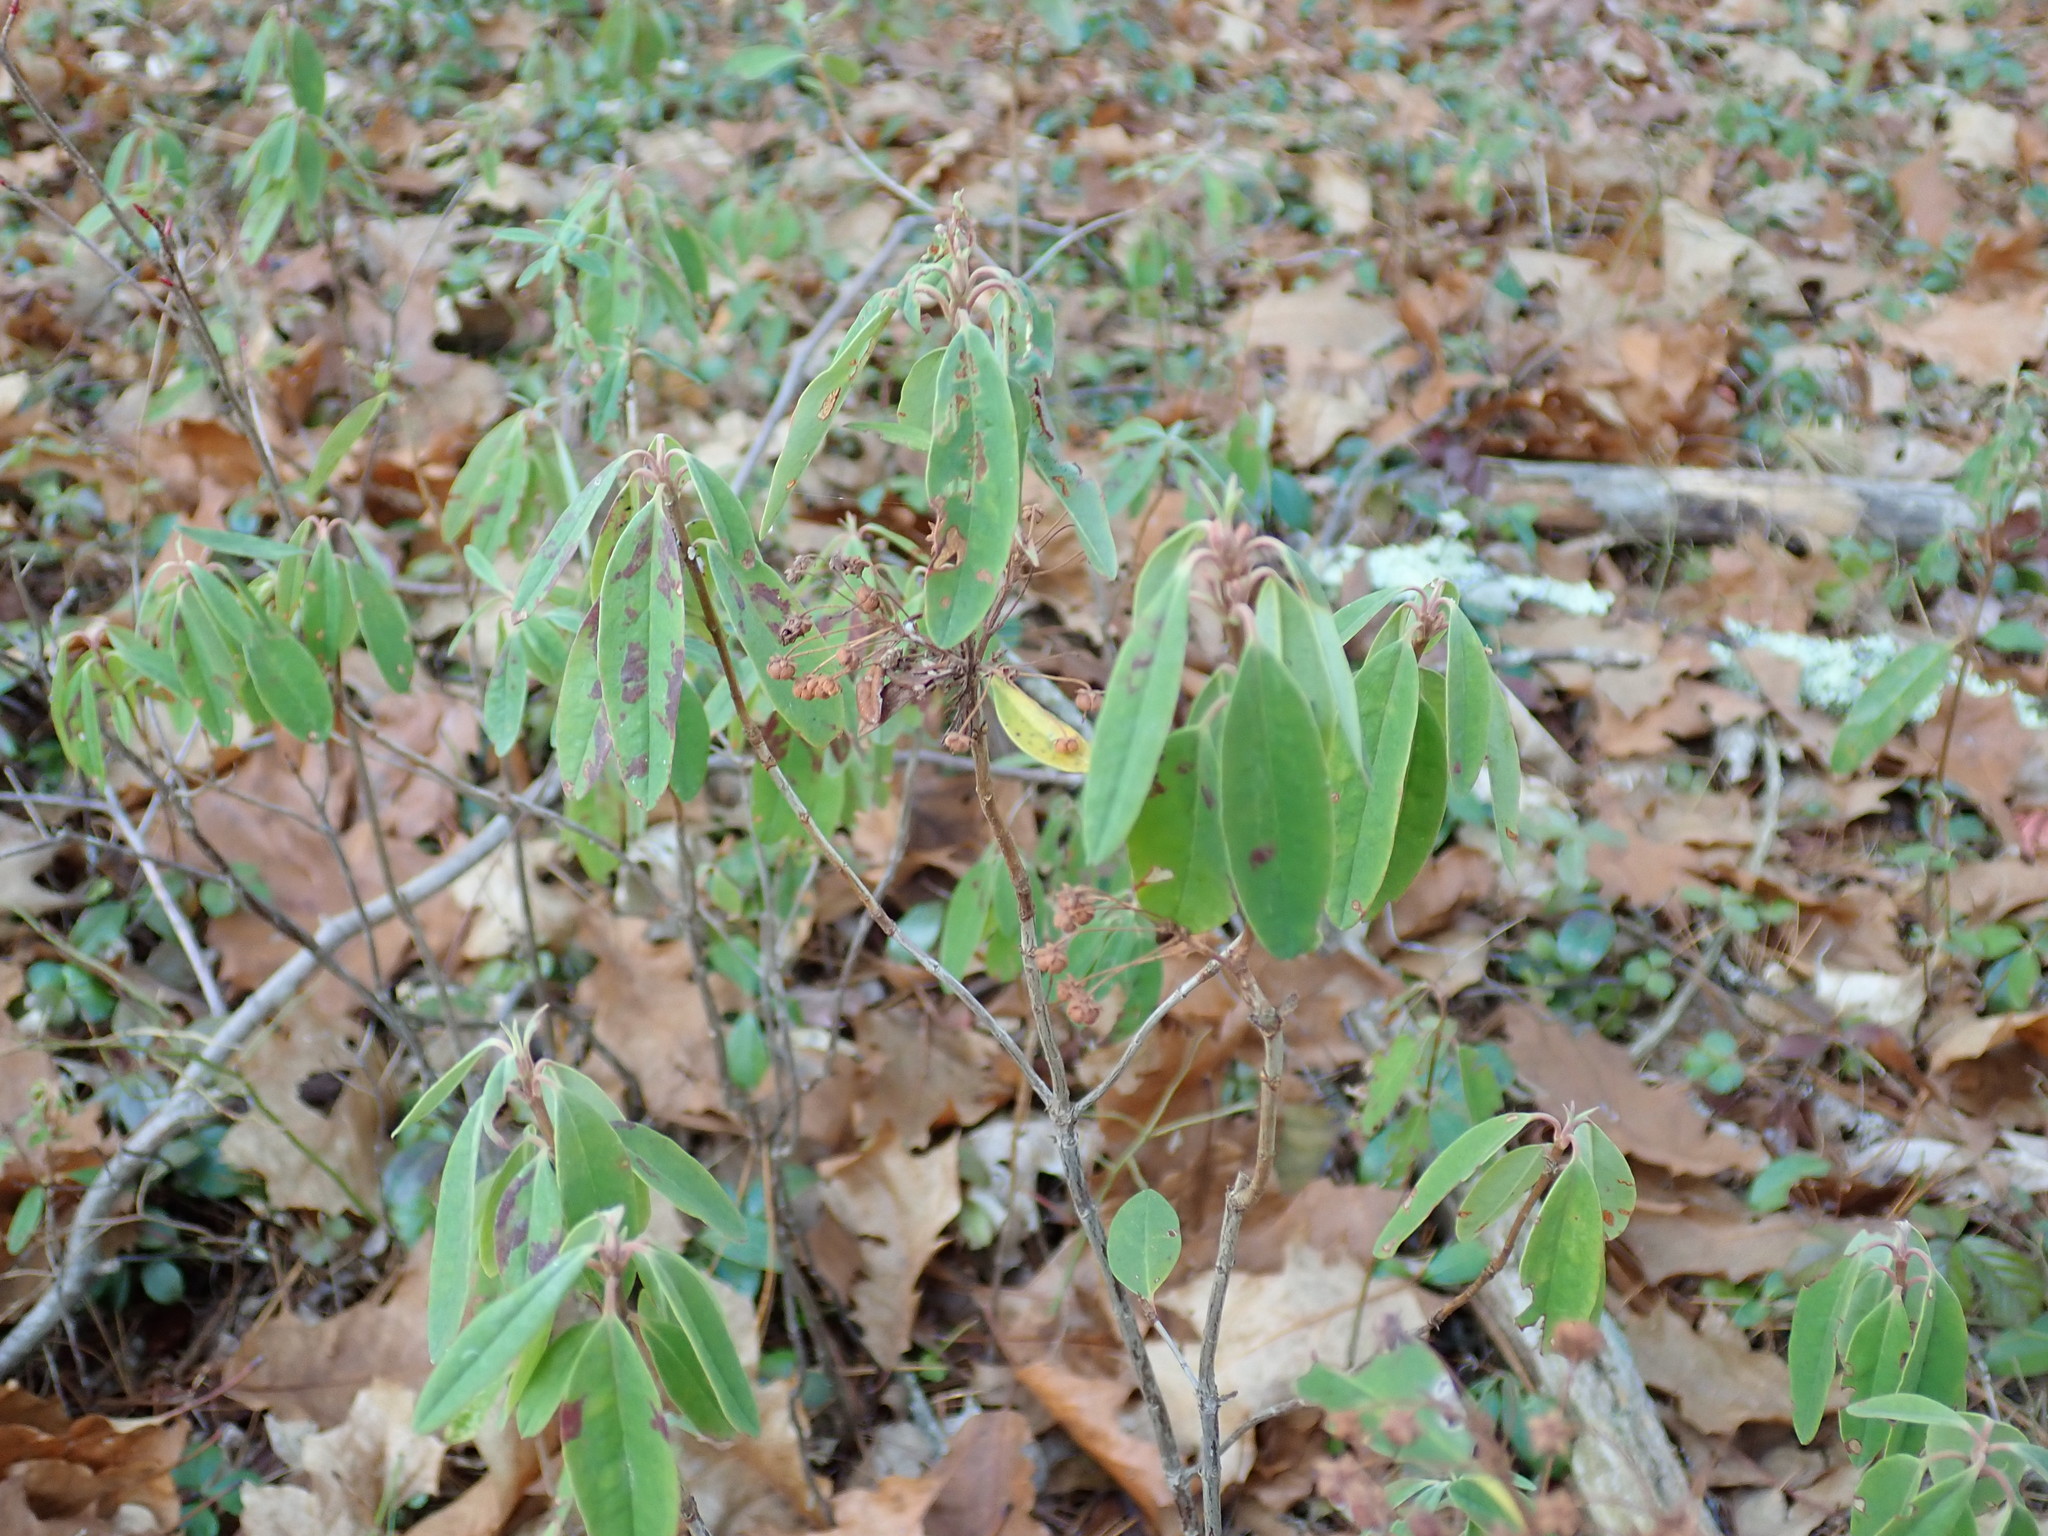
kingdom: Plantae
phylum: Tracheophyta
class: Magnoliopsida
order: Ericales
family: Ericaceae
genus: Kalmia
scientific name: Kalmia angustifolia
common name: Sheep-laurel
